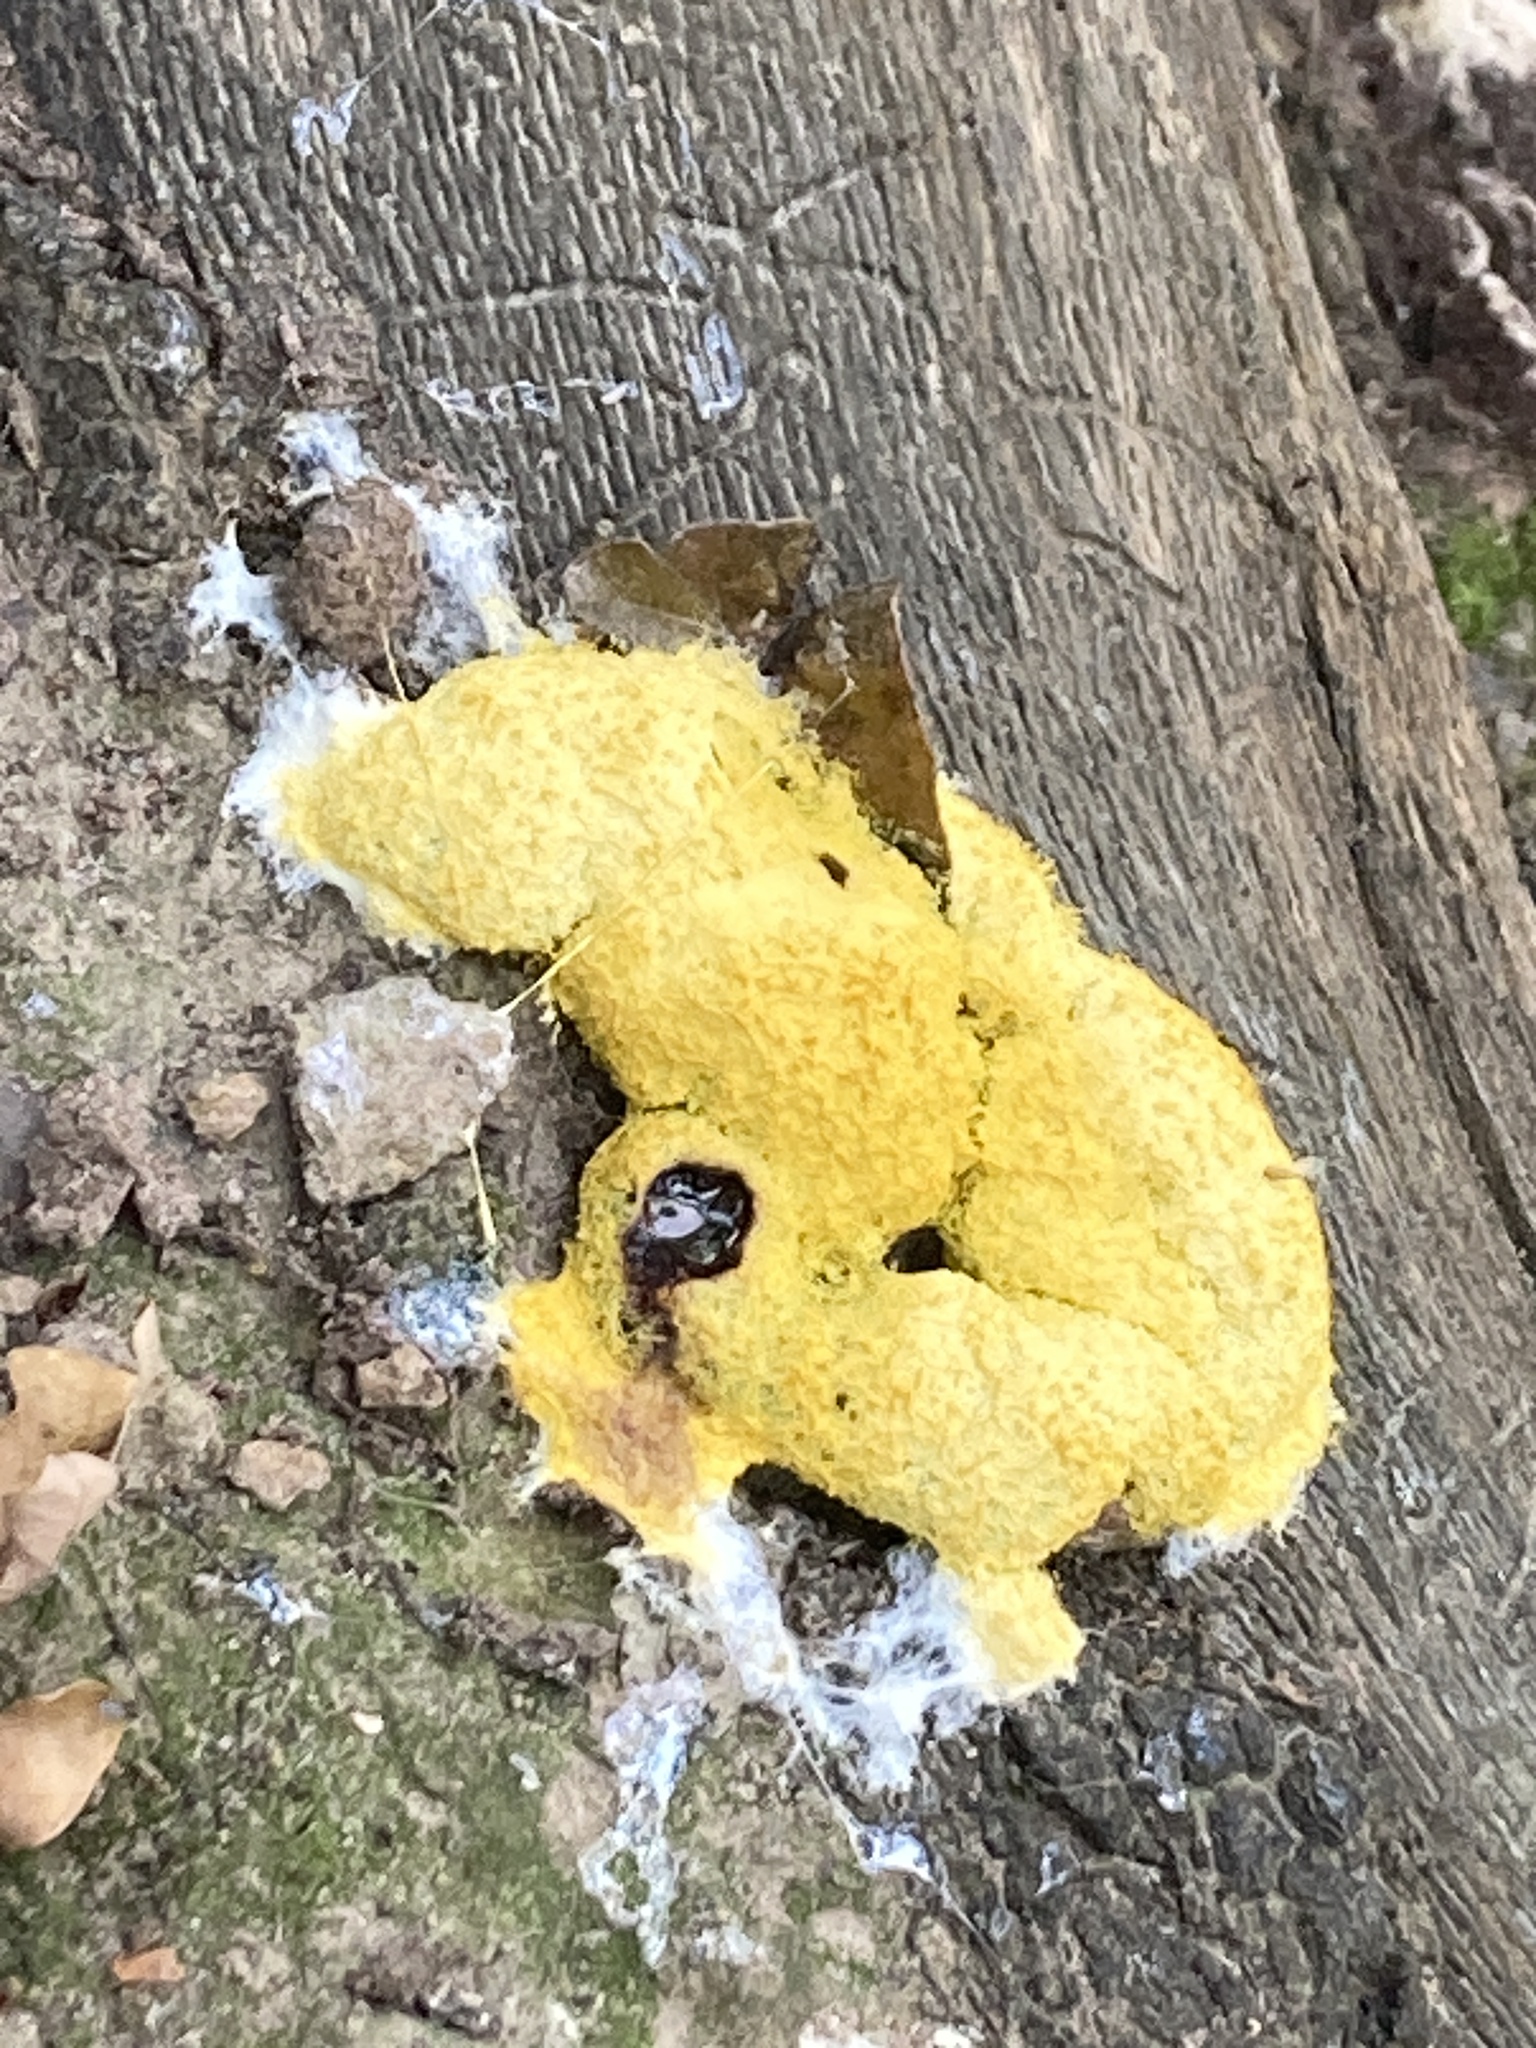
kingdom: Protozoa
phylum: Mycetozoa
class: Myxomycetes
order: Physarales
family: Physaraceae
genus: Fuligo
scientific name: Fuligo septica
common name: Dog vomit slime mold
